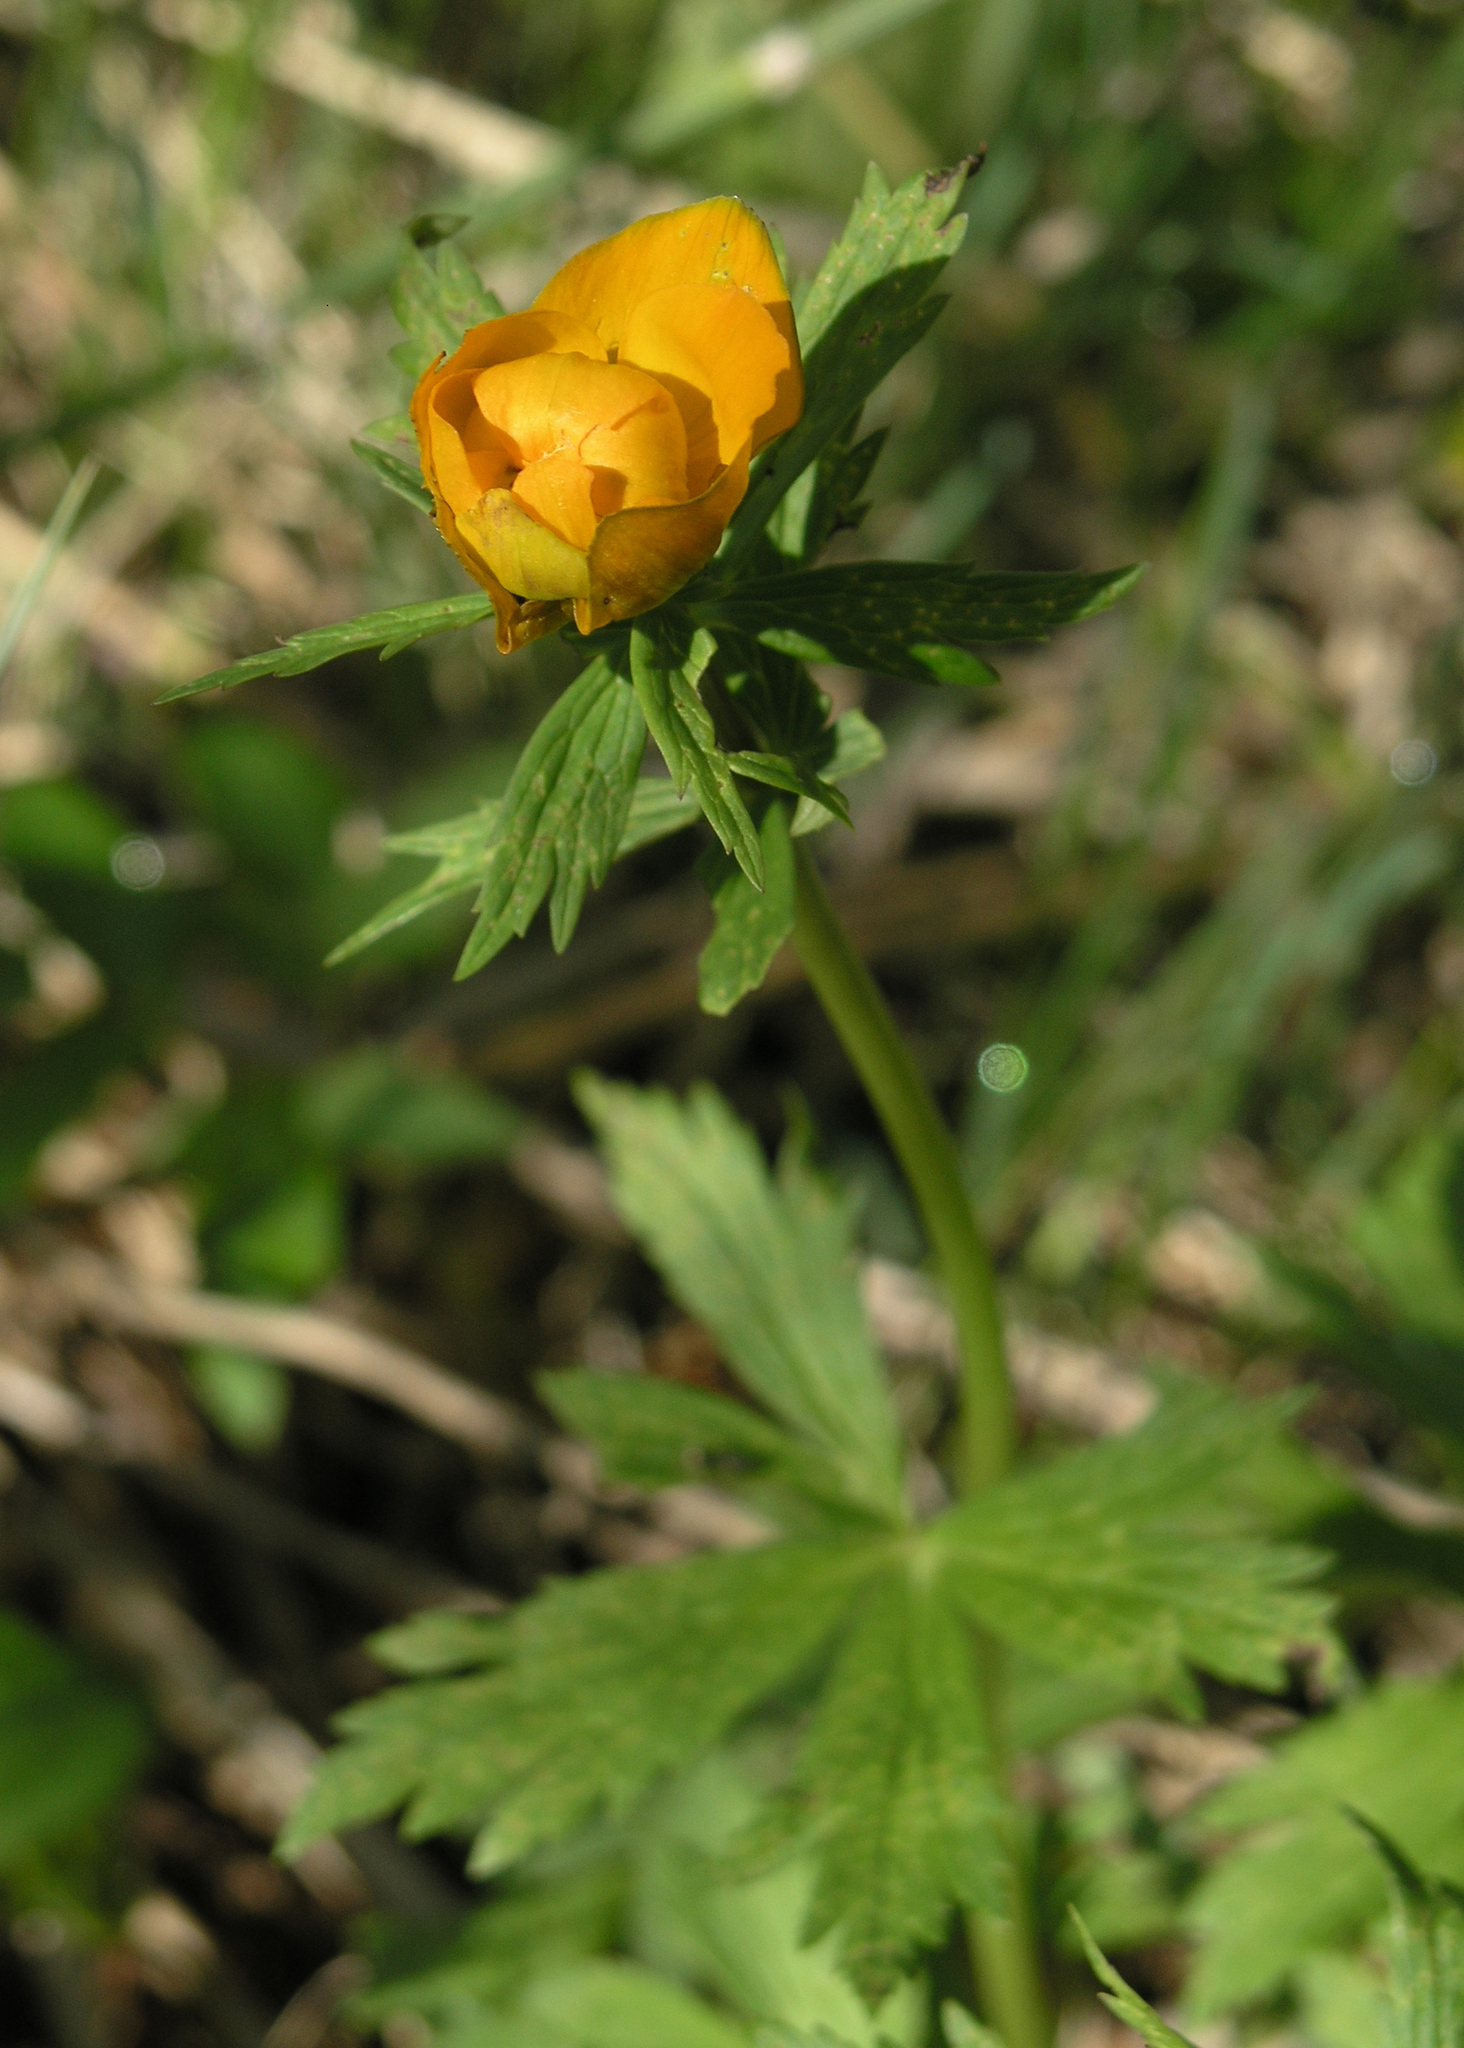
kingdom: Plantae
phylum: Tracheophyta
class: Magnoliopsida
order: Ranunculales
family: Ranunculaceae
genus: Trollius
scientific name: Trollius asiaticus
